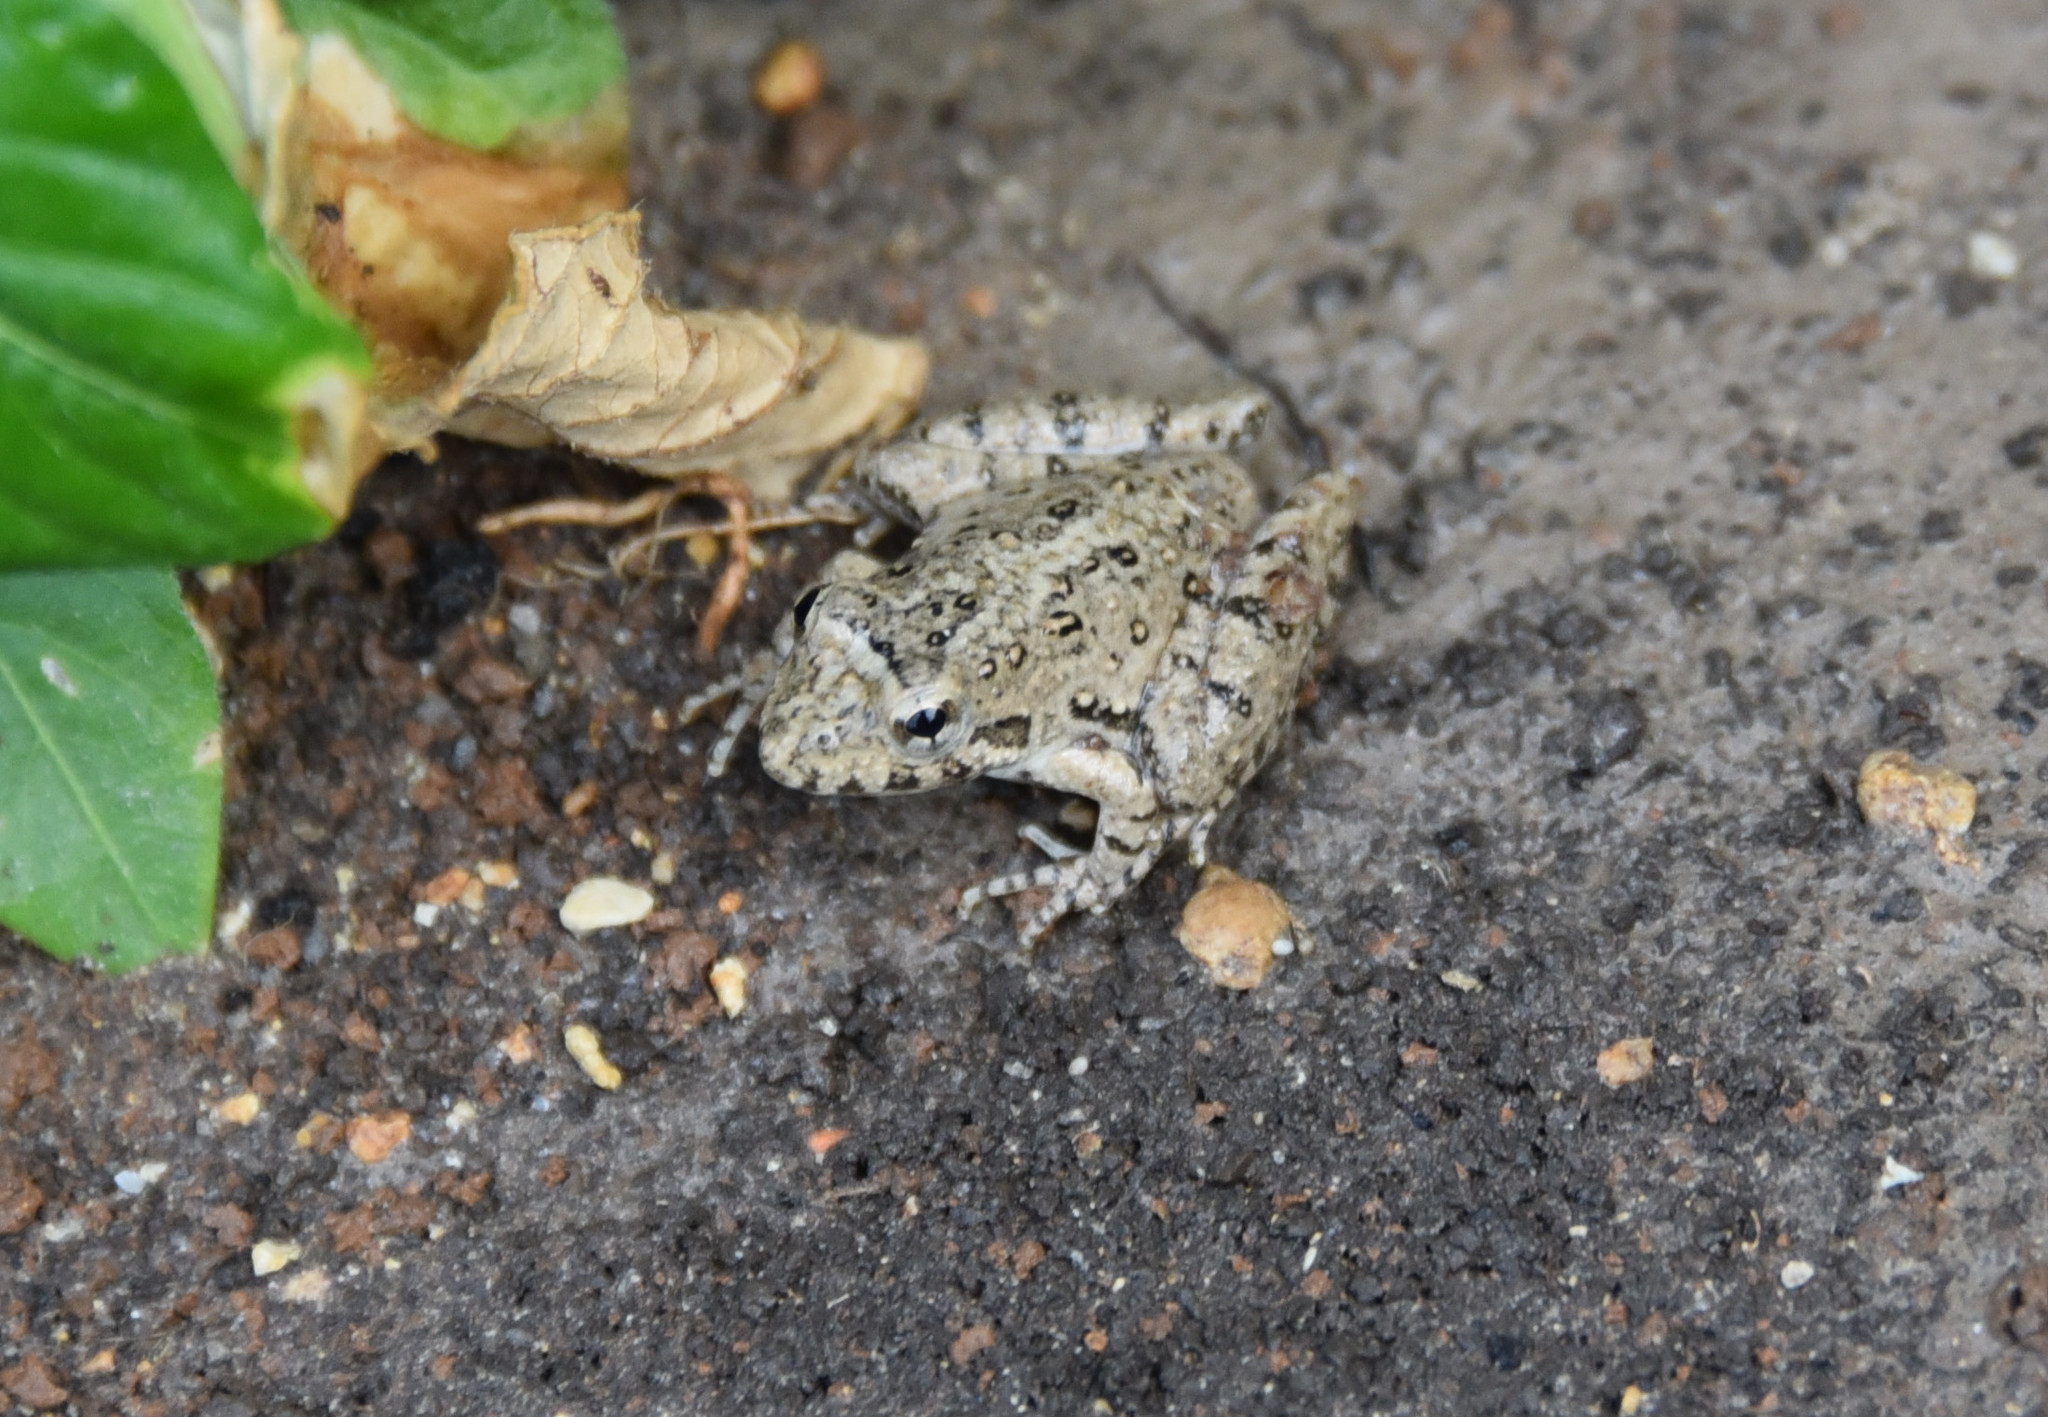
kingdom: Animalia
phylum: Chordata
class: Amphibia
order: Anura
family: Hylidae
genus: Acris
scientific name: Acris blanchardi
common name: Blanchard's cricket frog
